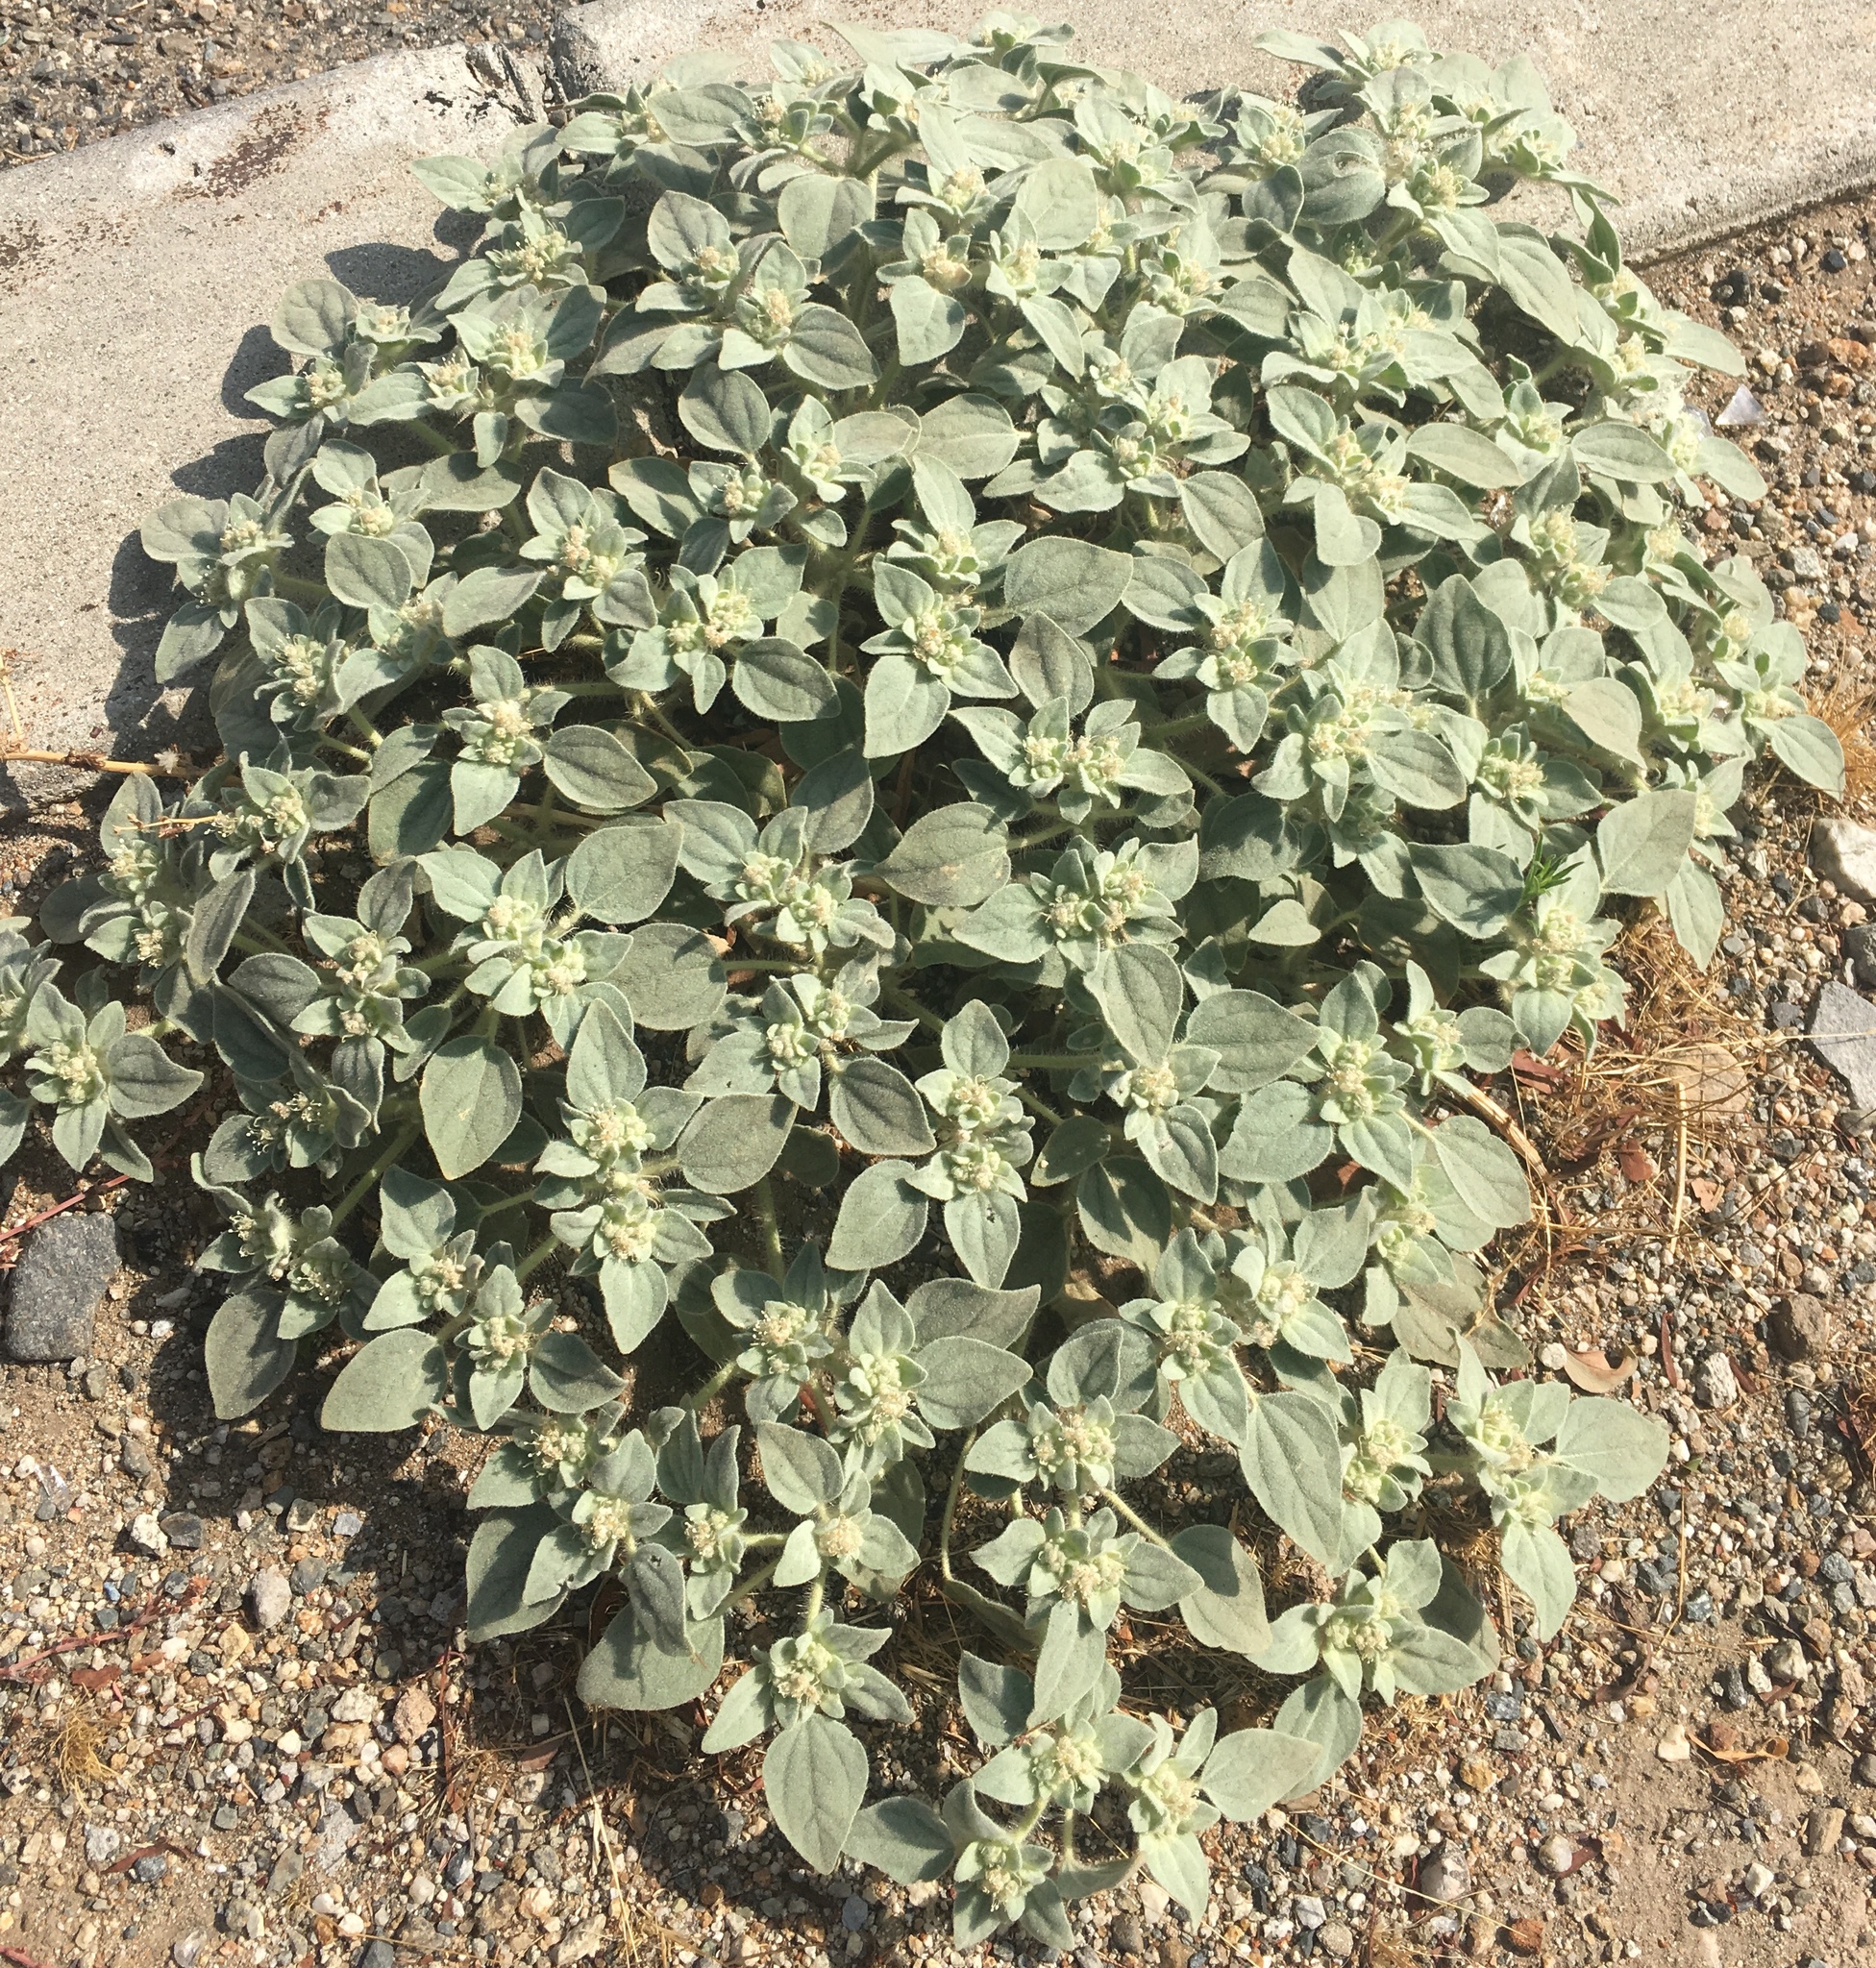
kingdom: Plantae
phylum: Tracheophyta
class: Magnoliopsida
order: Malpighiales
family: Euphorbiaceae
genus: Croton
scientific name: Croton setiger
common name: Dove weed
